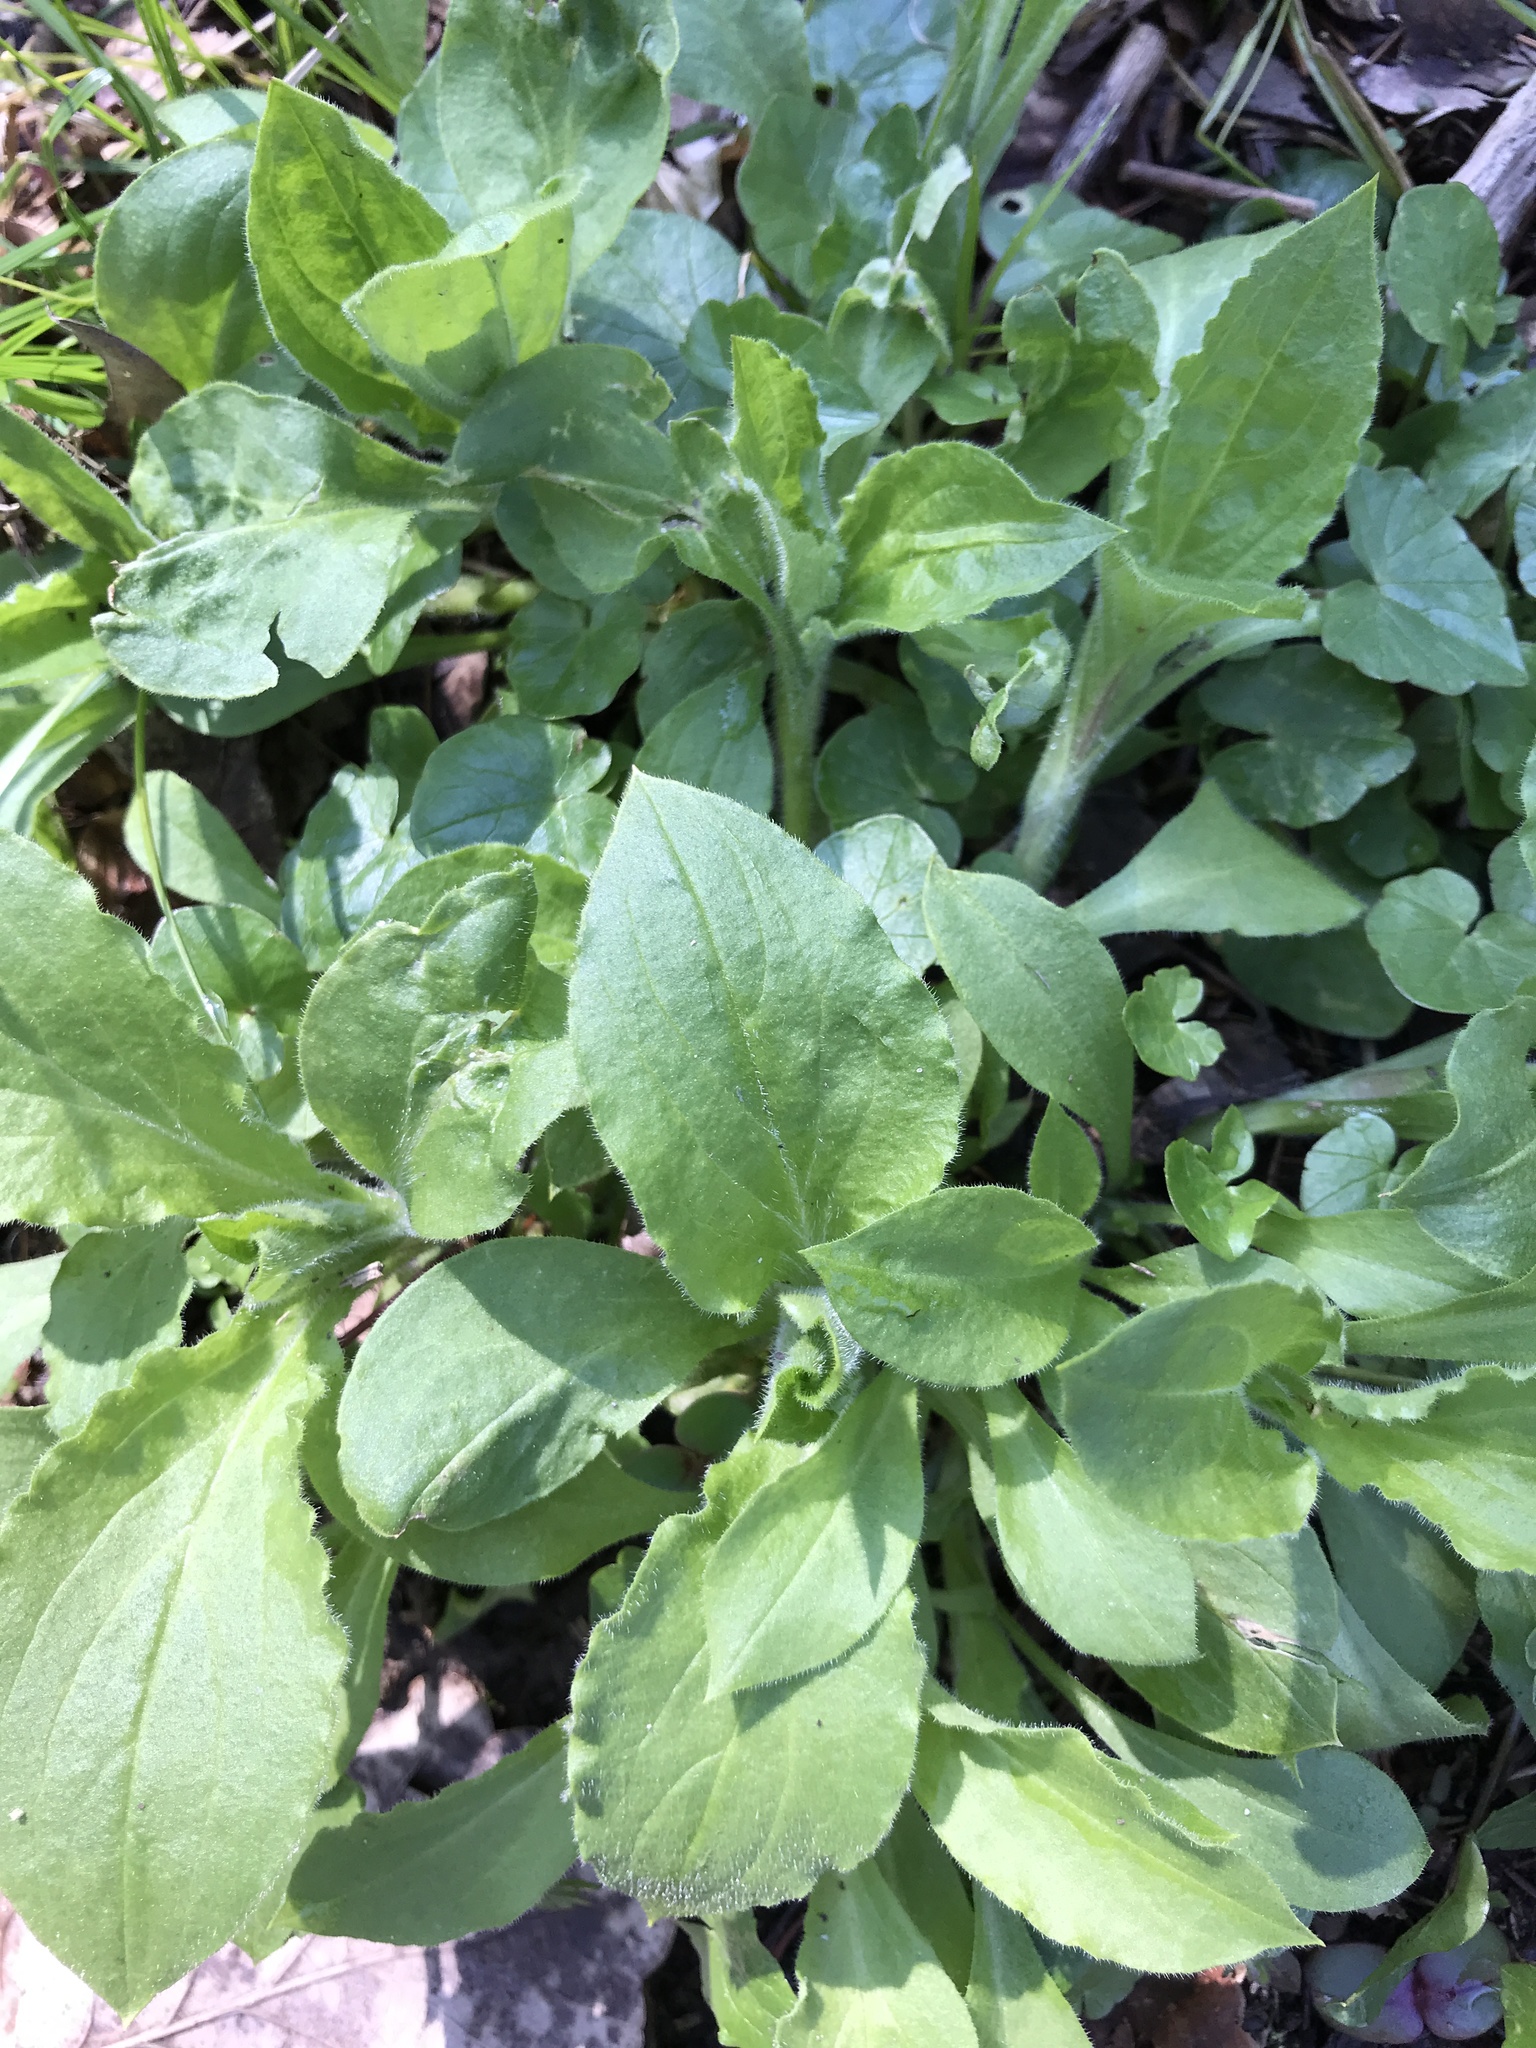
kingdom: Plantae
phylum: Tracheophyta
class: Magnoliopsida
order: Caryophyllales
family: Caryophyllaceae
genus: Silene
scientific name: Silene dioica
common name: Red campion
